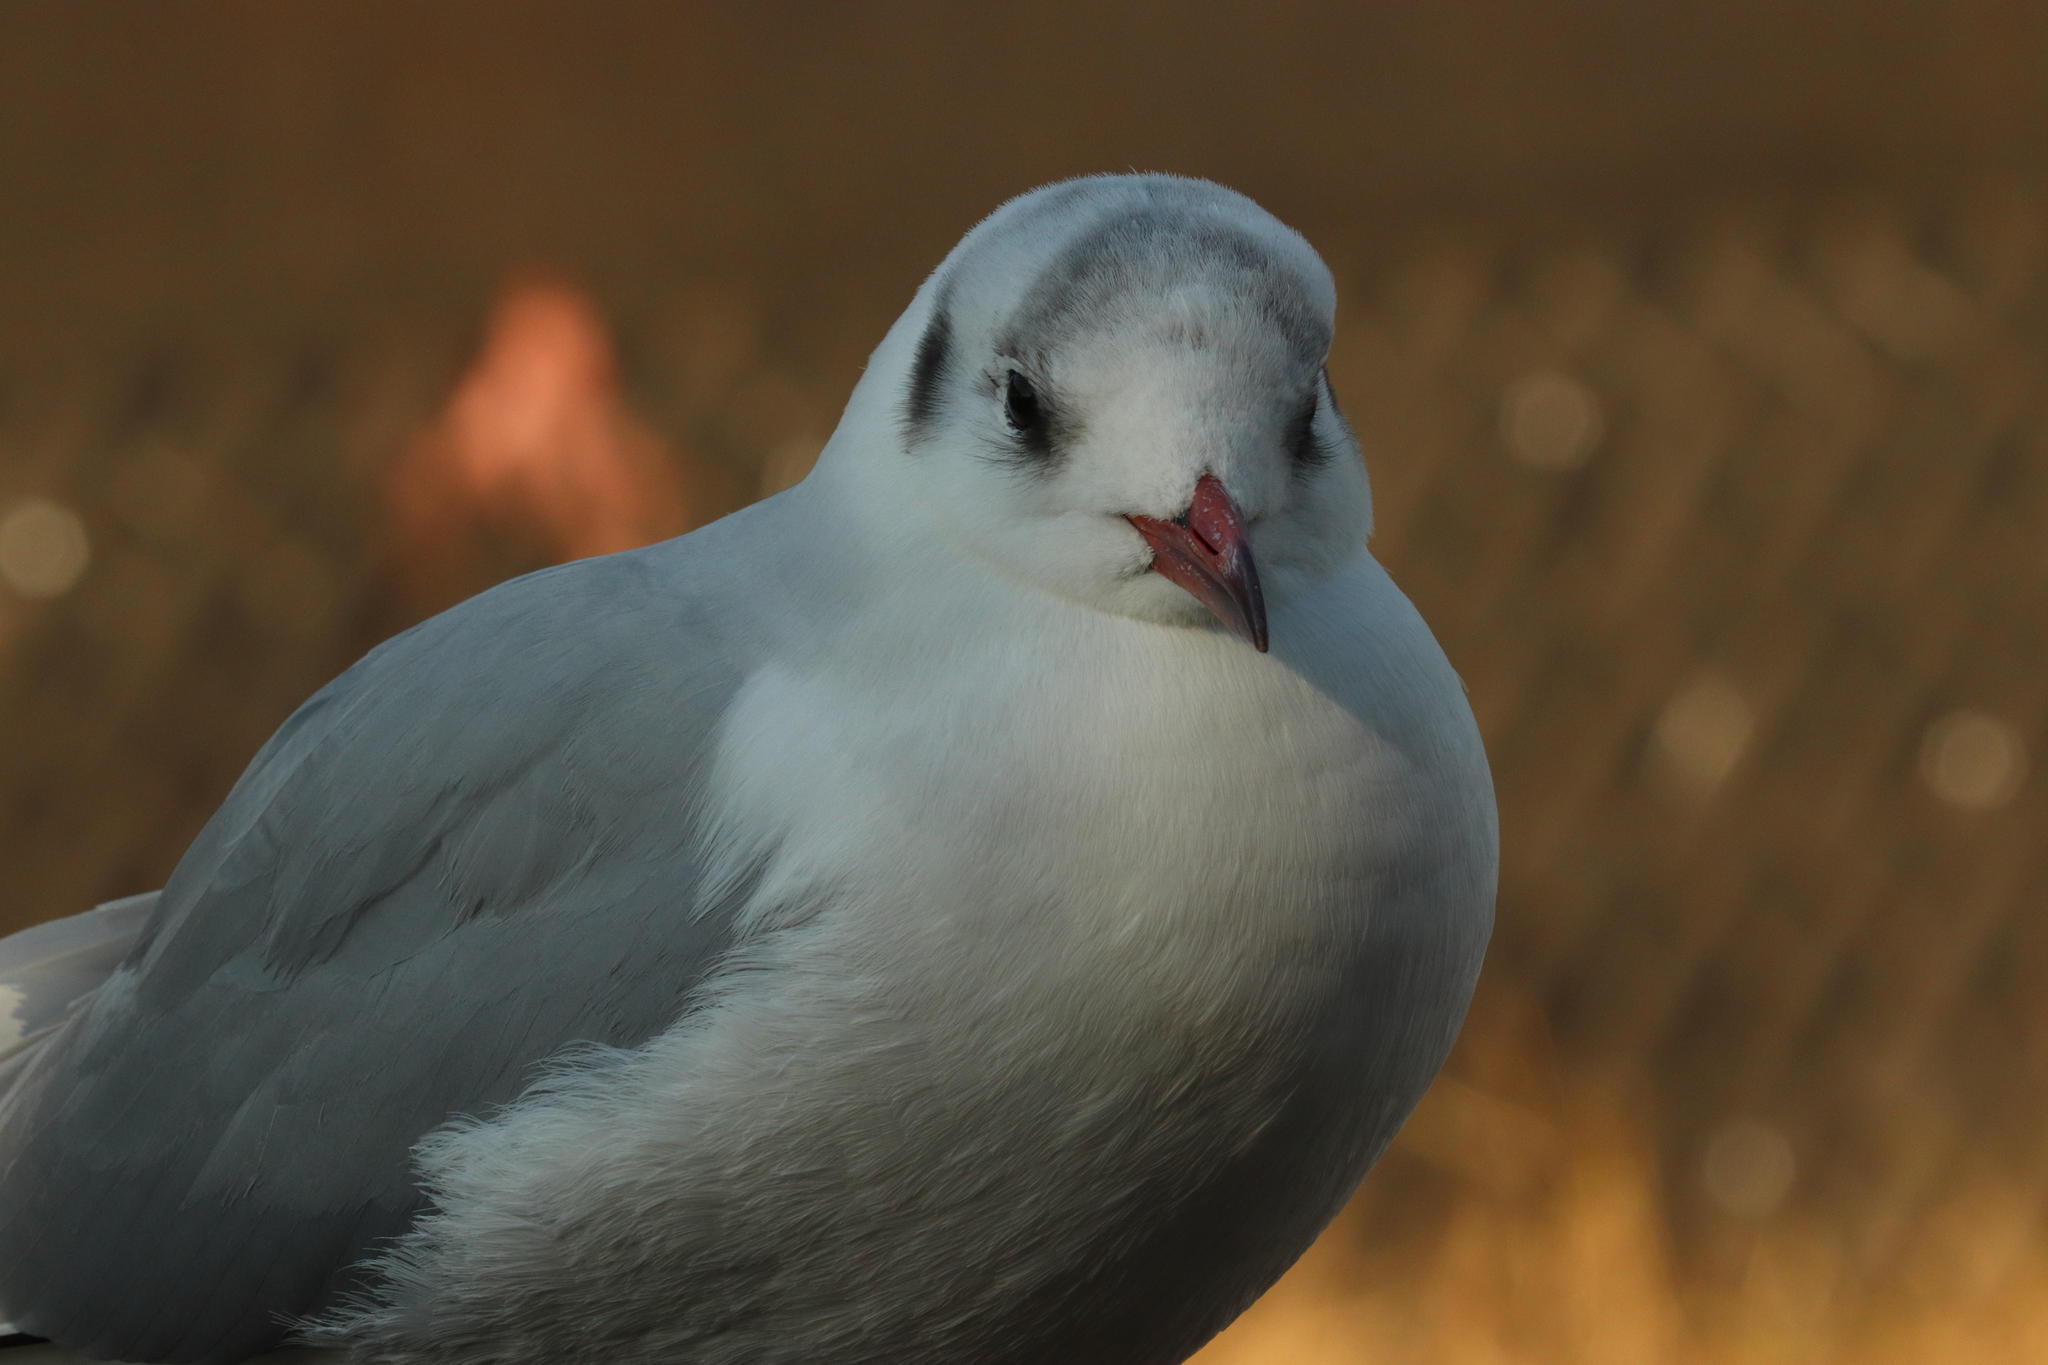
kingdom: Animalia
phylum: Chordata
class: Aves
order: Charadriiformes
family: Laridae
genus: Chroicocephalus
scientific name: Chroicocephalus ridibundus
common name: Black-headed gull
